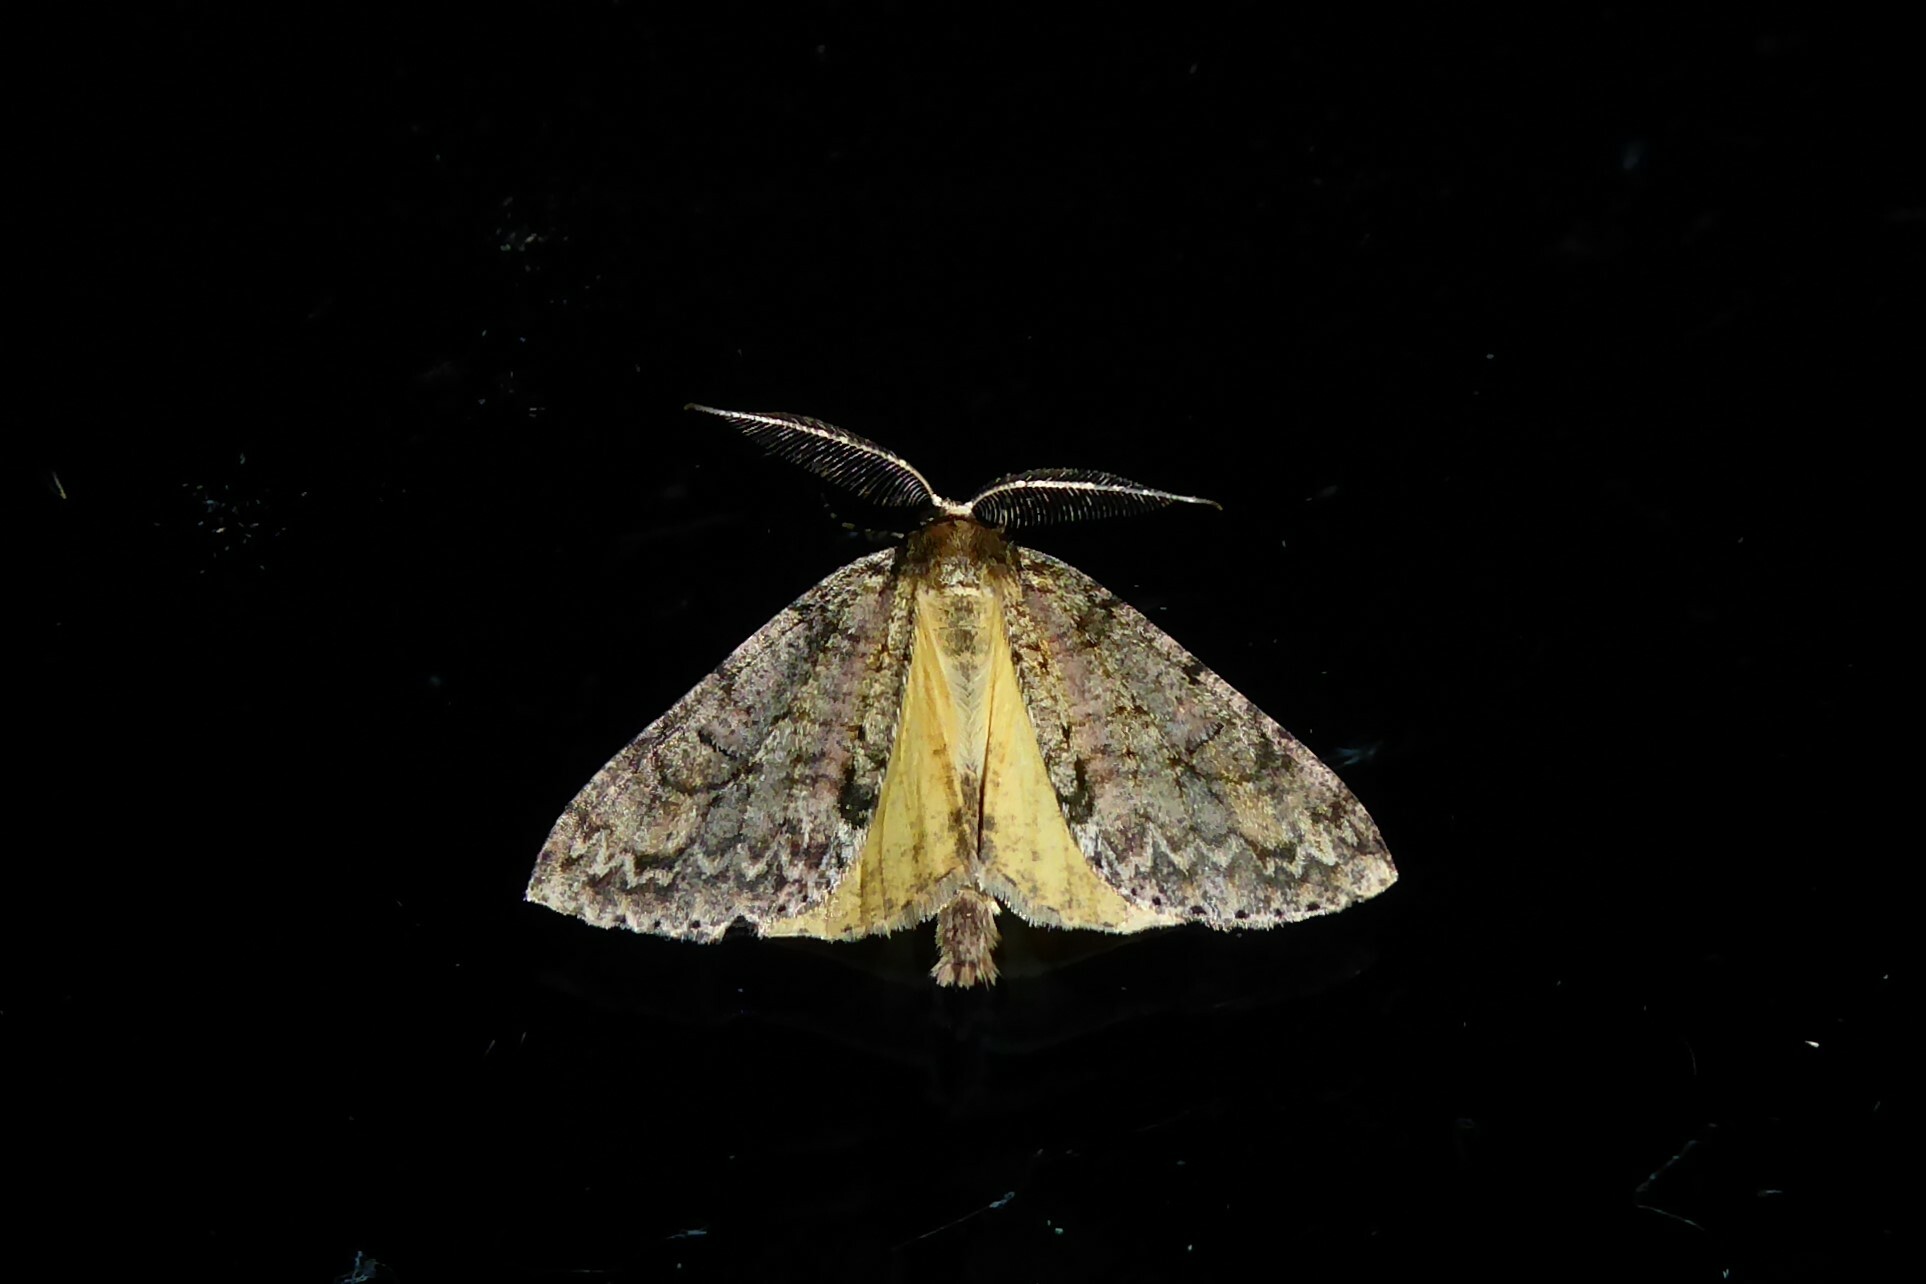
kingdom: Animalia
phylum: Arthropoda
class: Insecta
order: Lepidoptera
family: Geometridae
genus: Pseudocoremia
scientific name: Pseudocoremia suavis
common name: Common forest looper
